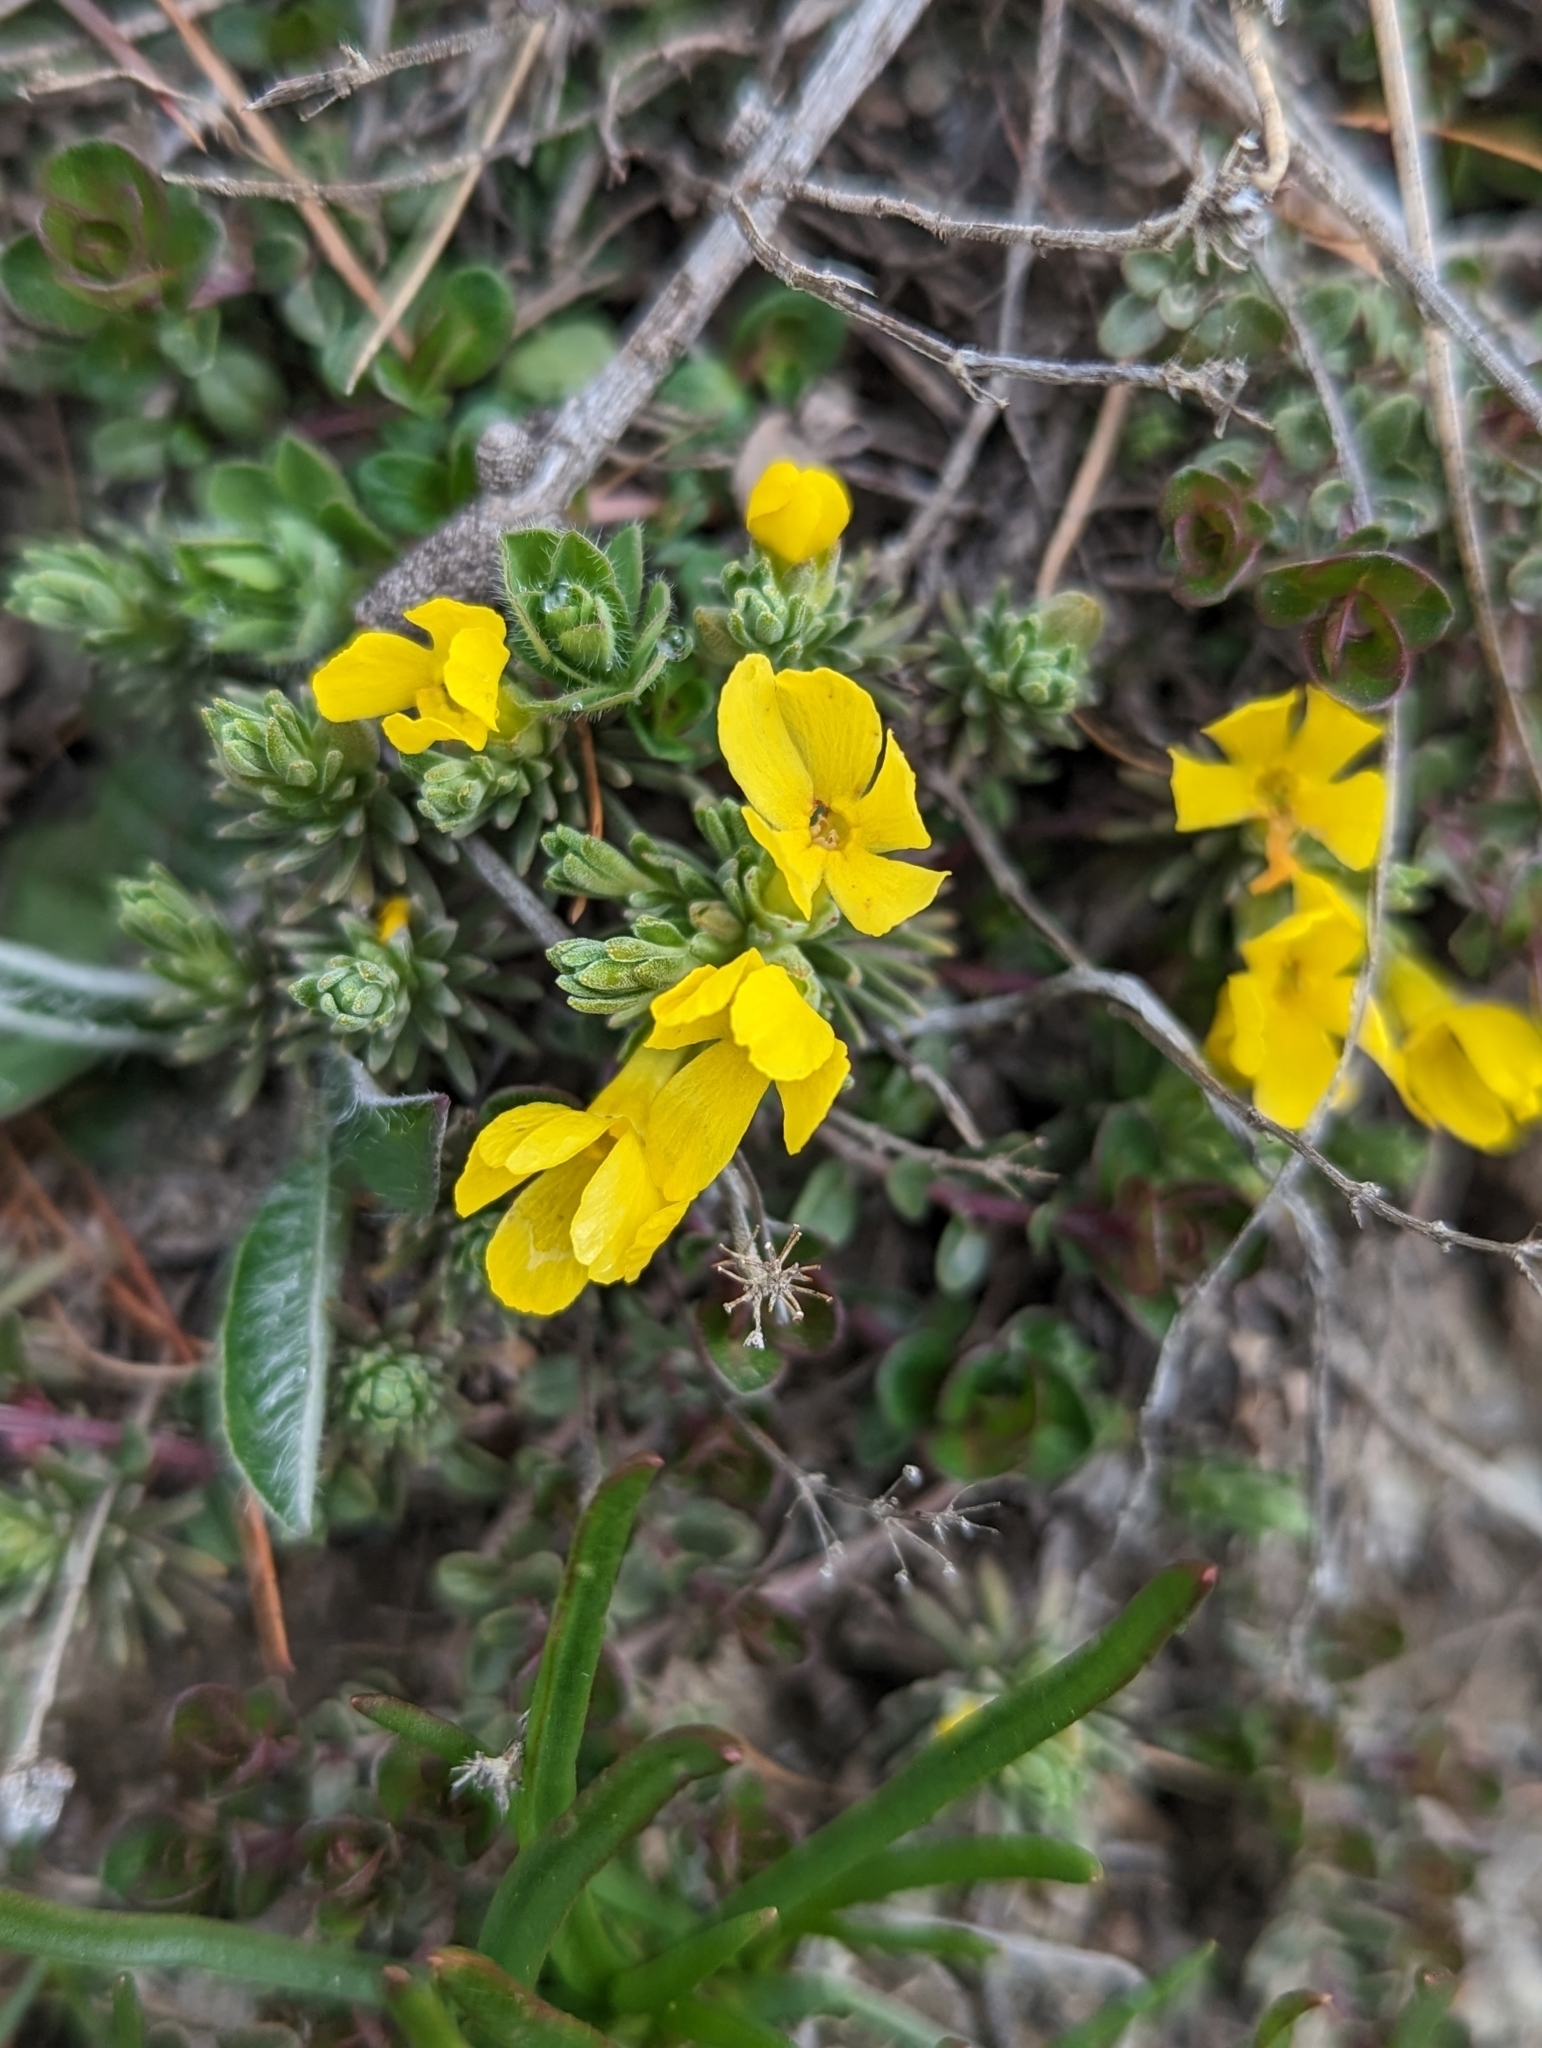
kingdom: Plantae
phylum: Tracheophyta
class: Magnoliopsida
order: Ericales
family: Primulaceae
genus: Androsace
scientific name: Androsace vitaliana
